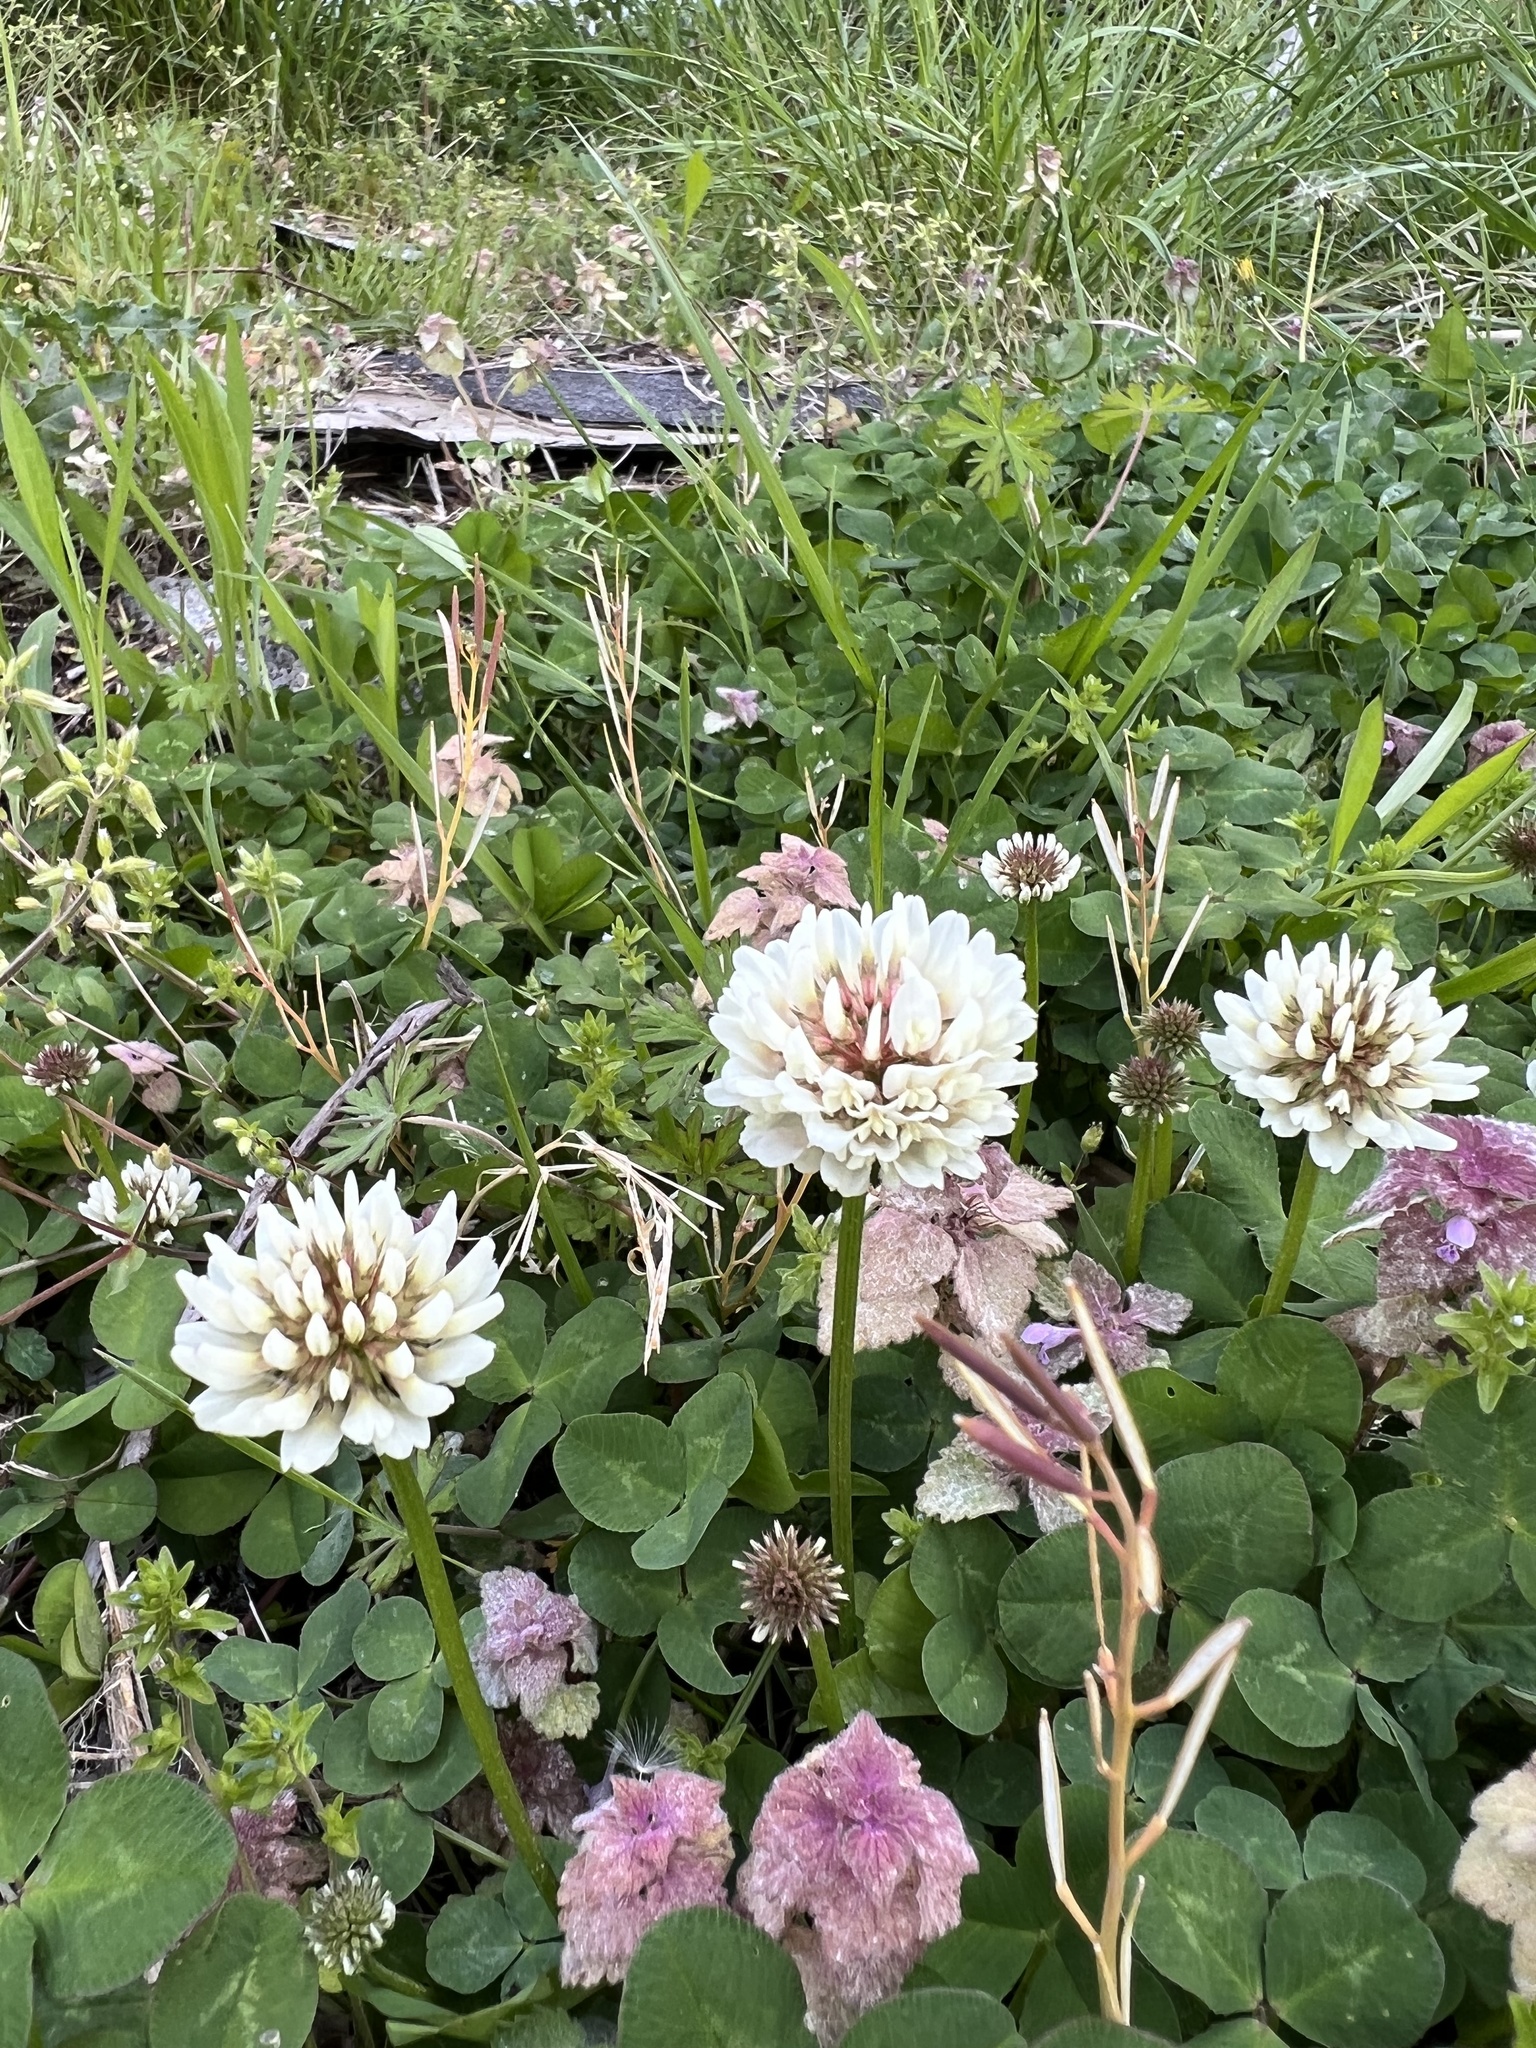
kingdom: Plantae
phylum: Tracheophyta
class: Magnoliopsida
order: Fabales
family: Fabaceae
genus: Trifolium
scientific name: Trifolium repens
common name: White clover
